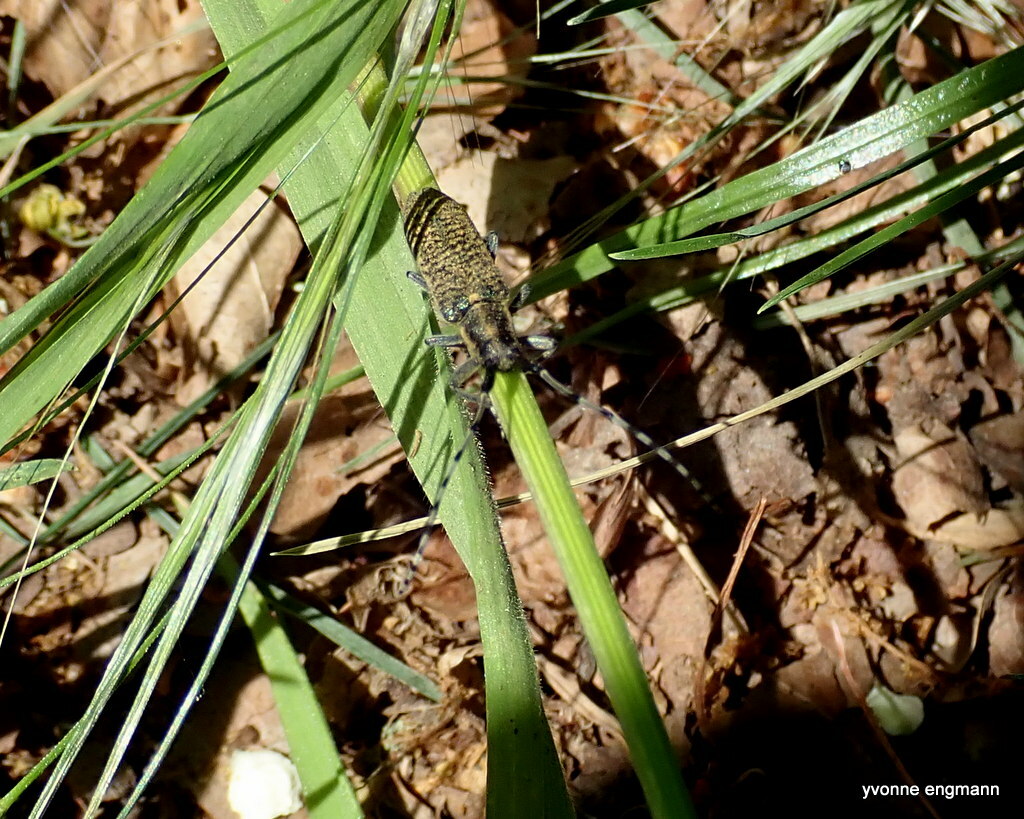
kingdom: Animalia
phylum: Arthropoda
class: Insecta
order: Coleoptera
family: Cerambycidae
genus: Agapanthia
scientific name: Agapanthia villosoviridescens
